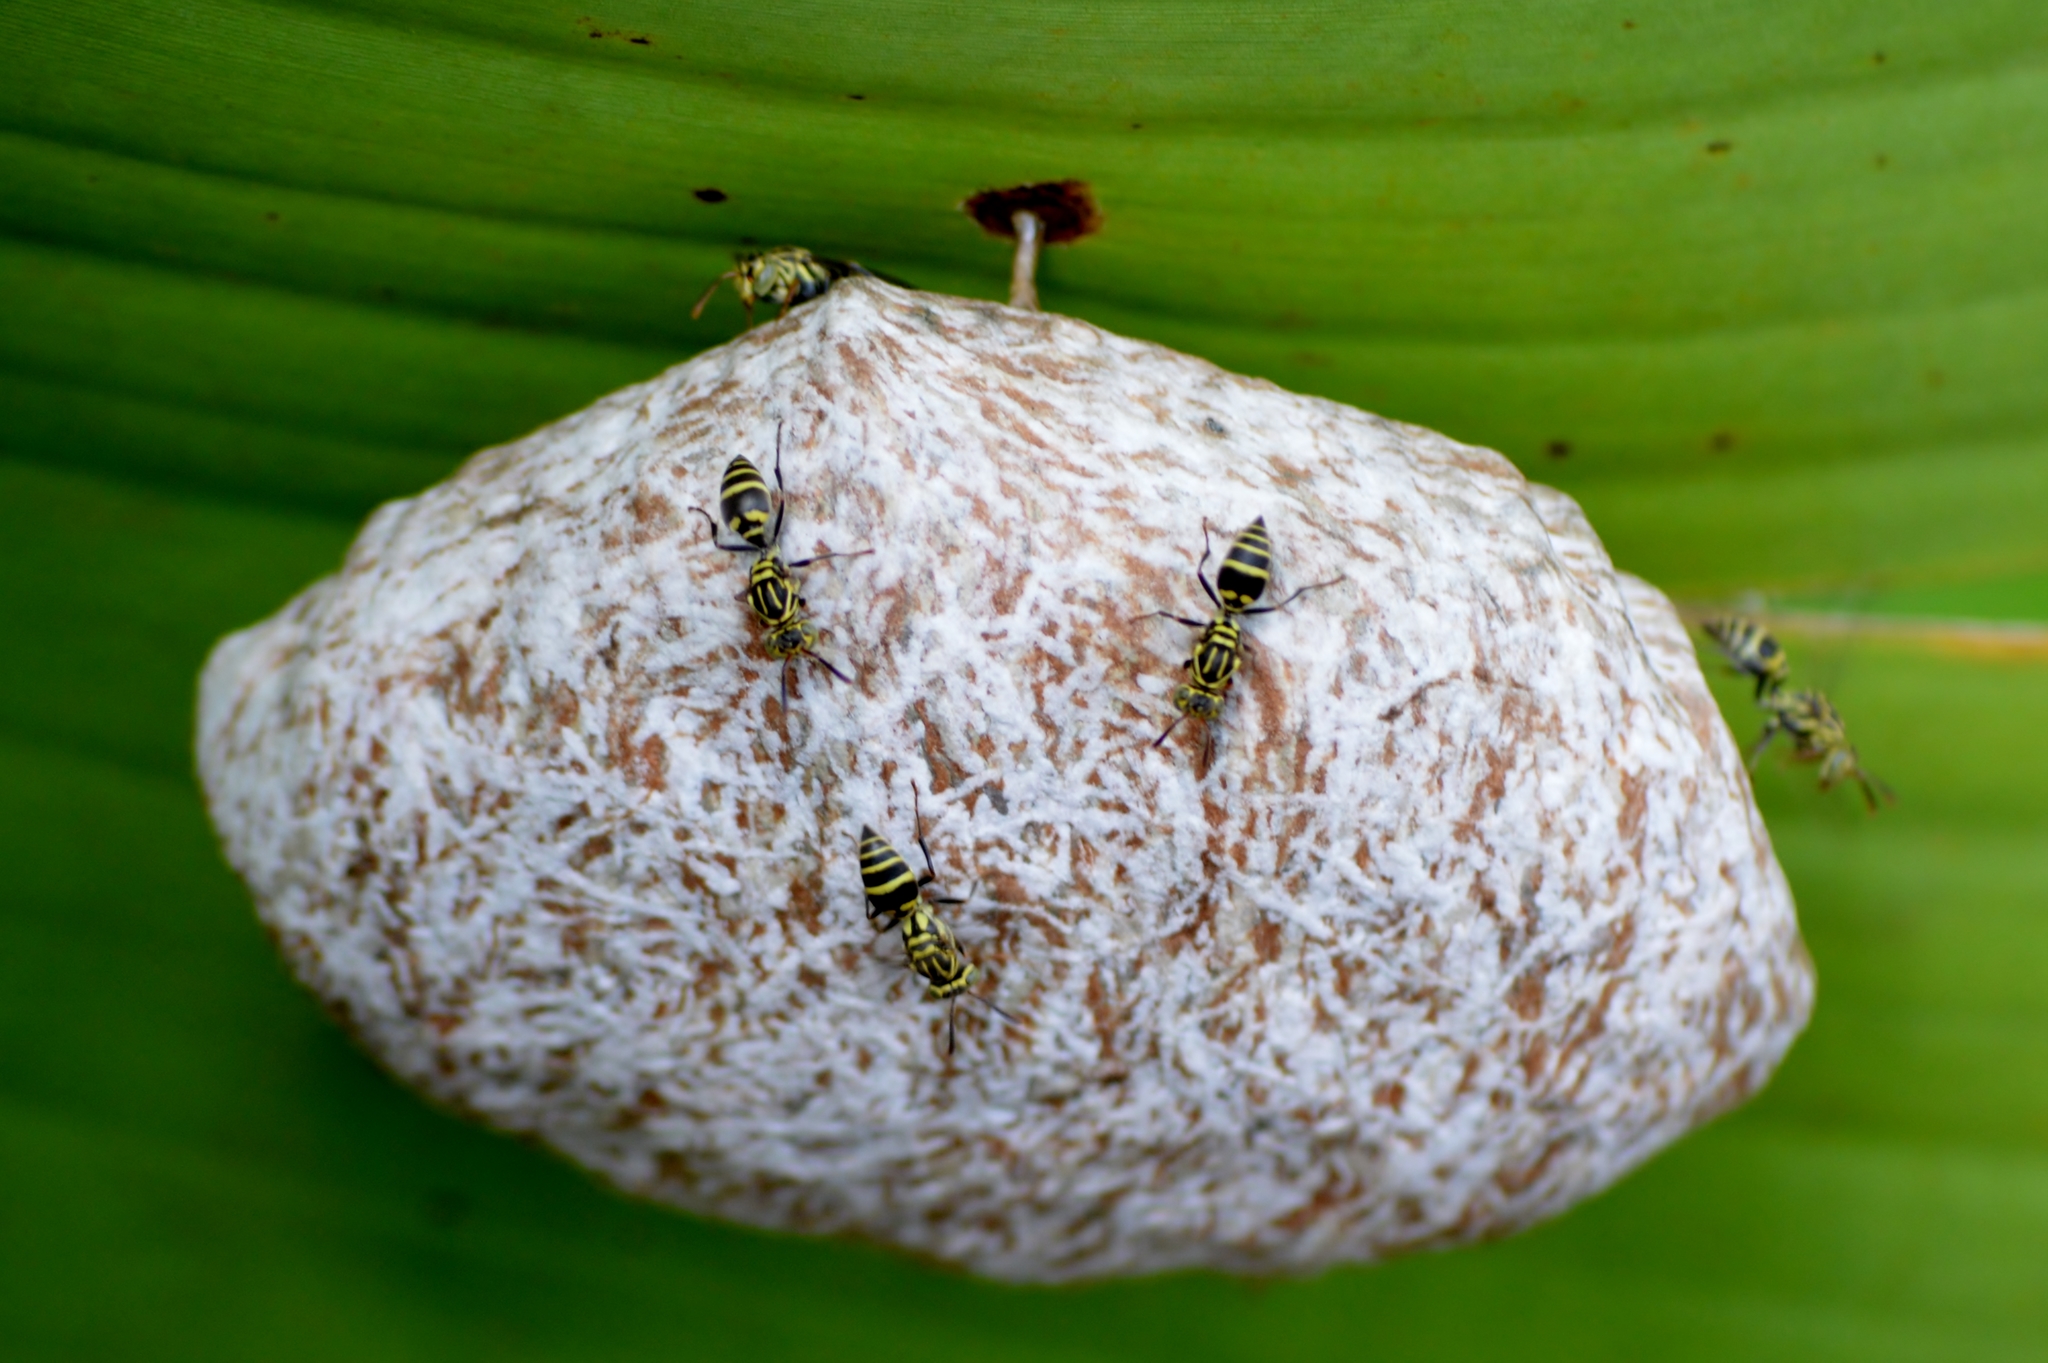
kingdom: Animalia
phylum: Arthropoda
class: Insecta
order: Hymenoptera
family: Vespidae
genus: Protopolybia
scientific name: Protopolybia exigua
